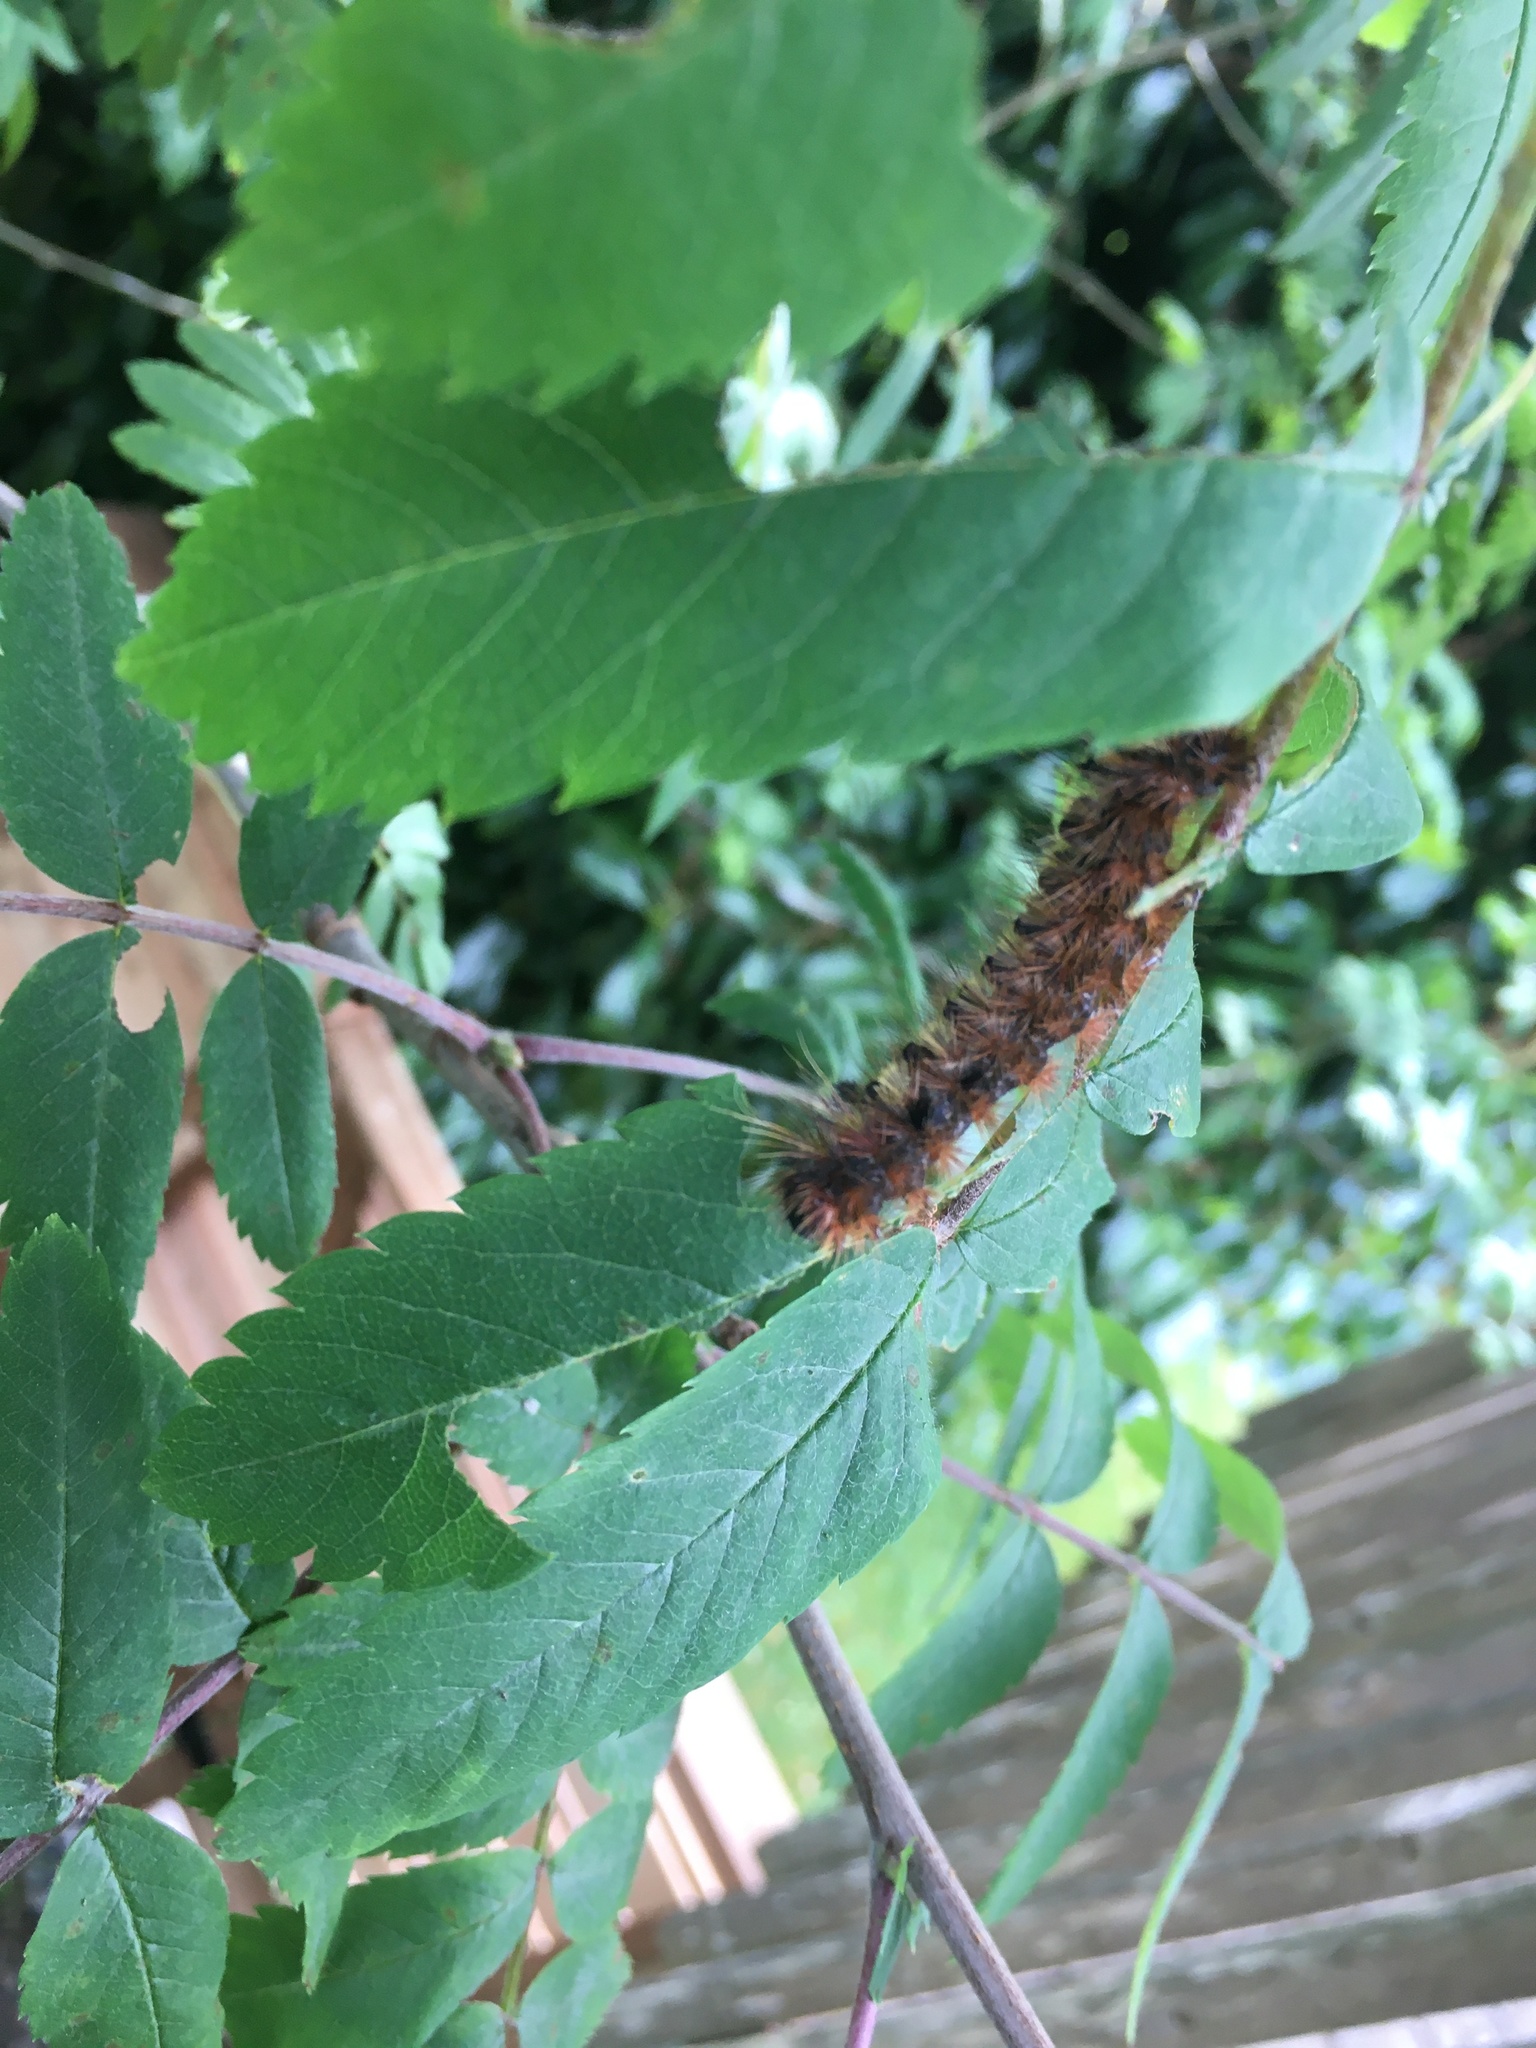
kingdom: Animalia
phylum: Arthropoda
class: Insecta
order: Lepidoptera
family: Erebidae
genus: Lophocampa
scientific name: Lophocampa argentata
